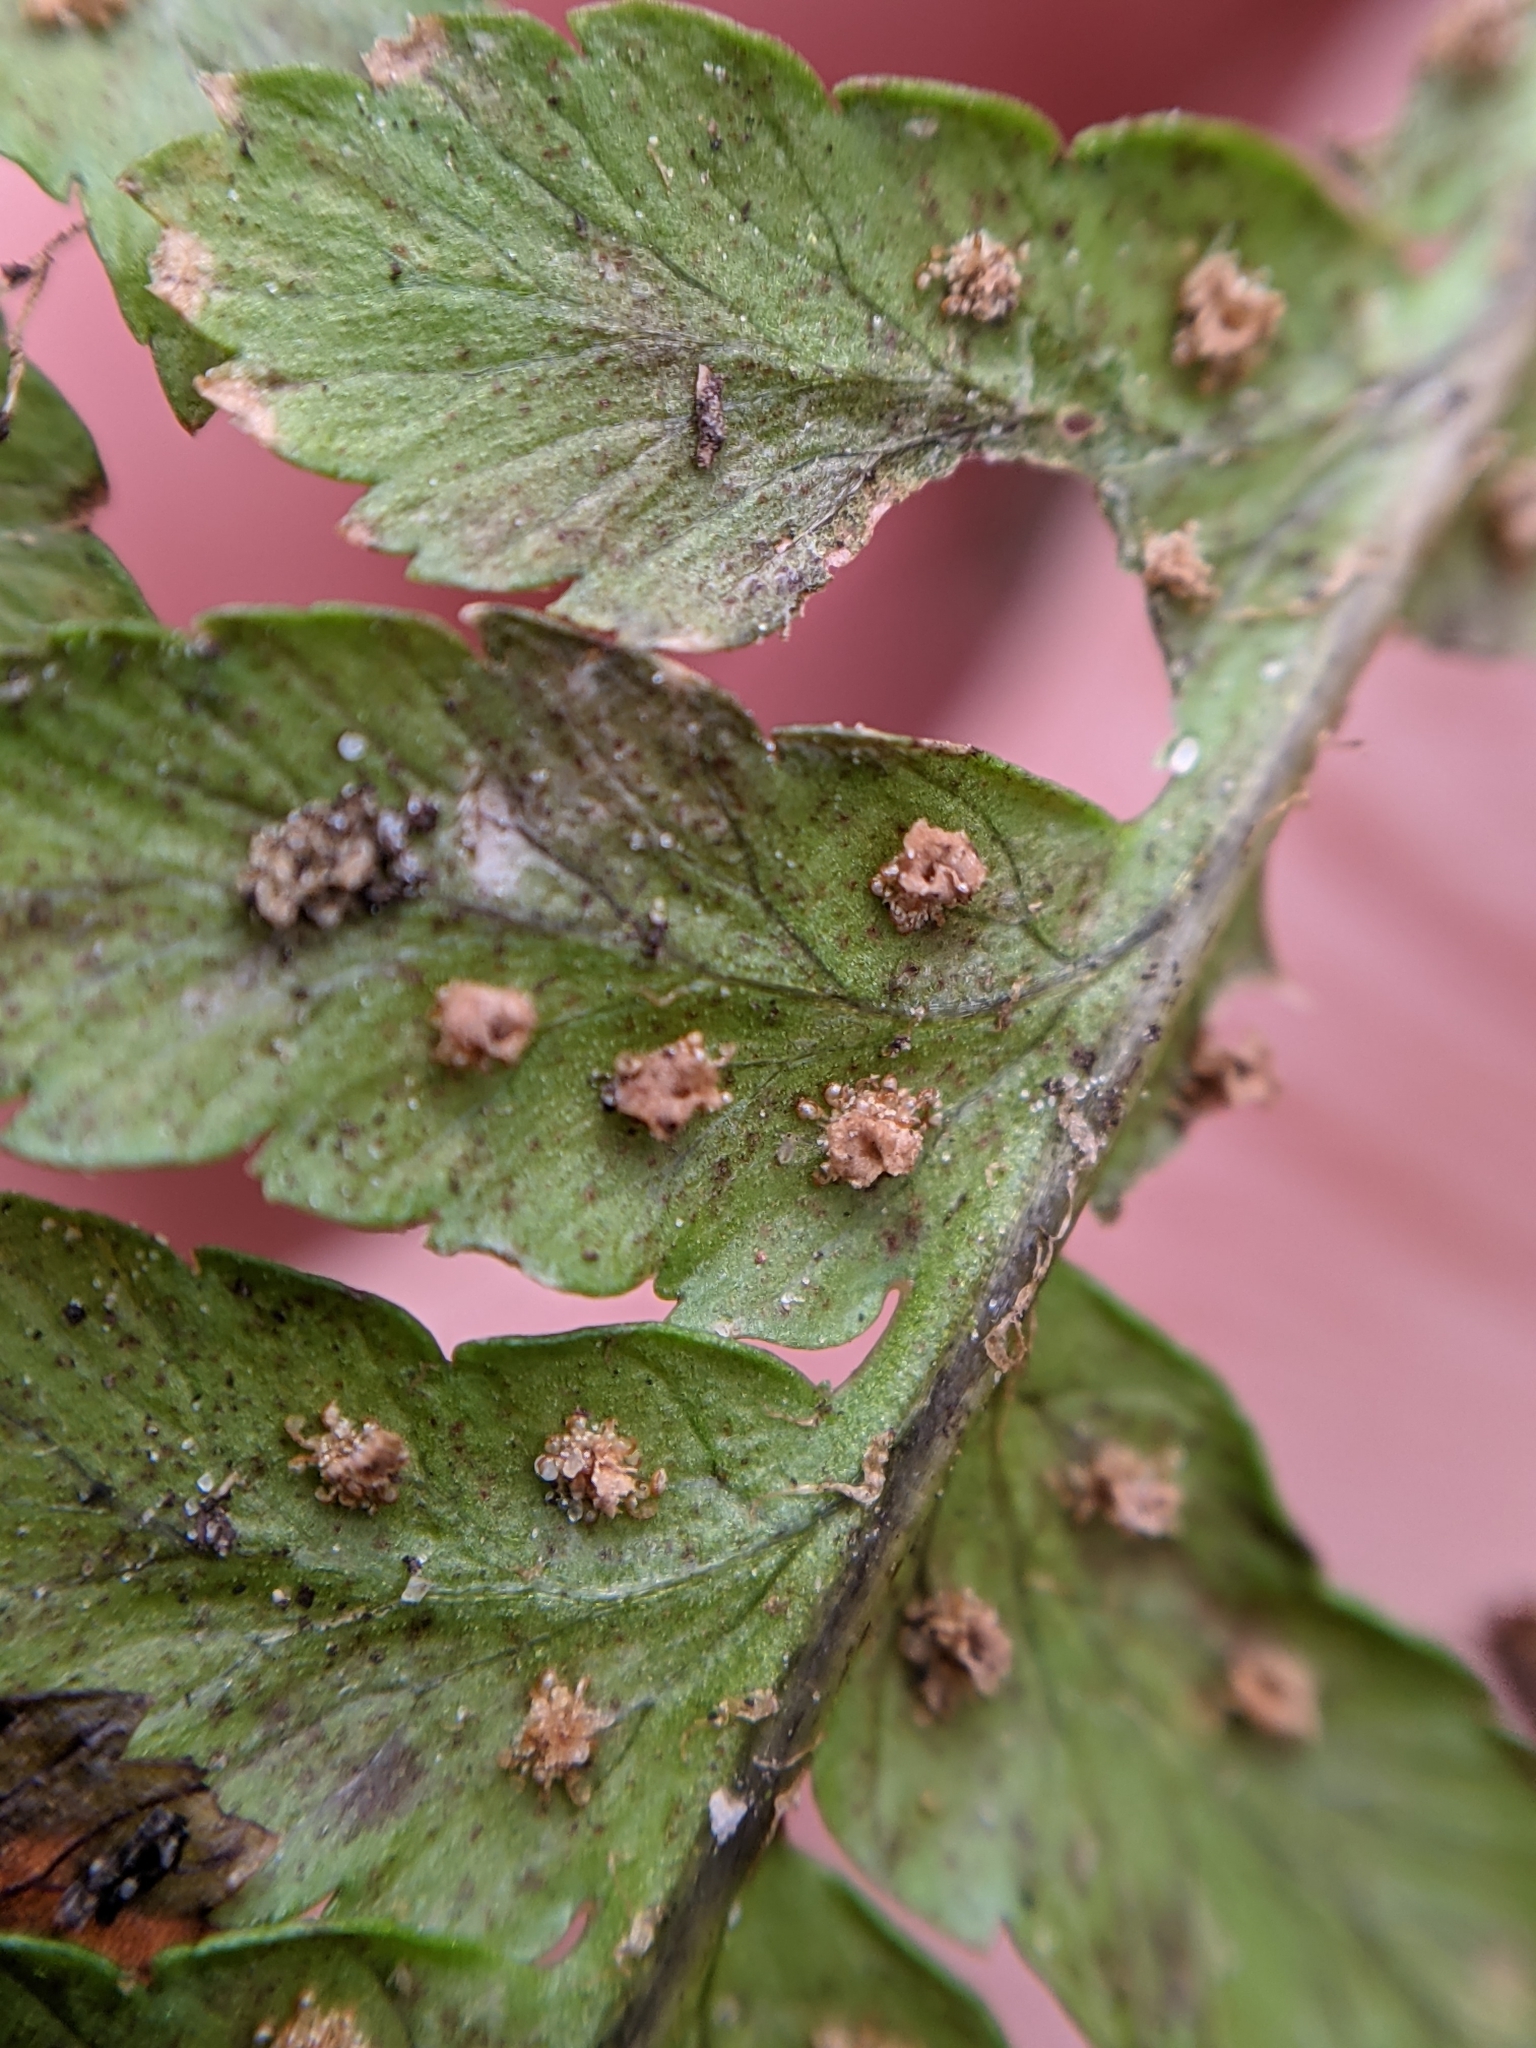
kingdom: Plantae
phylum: Tracheophyta
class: Polypodiopsida
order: Polypodiales
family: Dryopteridaceae
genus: Dryopteris
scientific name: Dryopteris filix-mas
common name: Male fern
